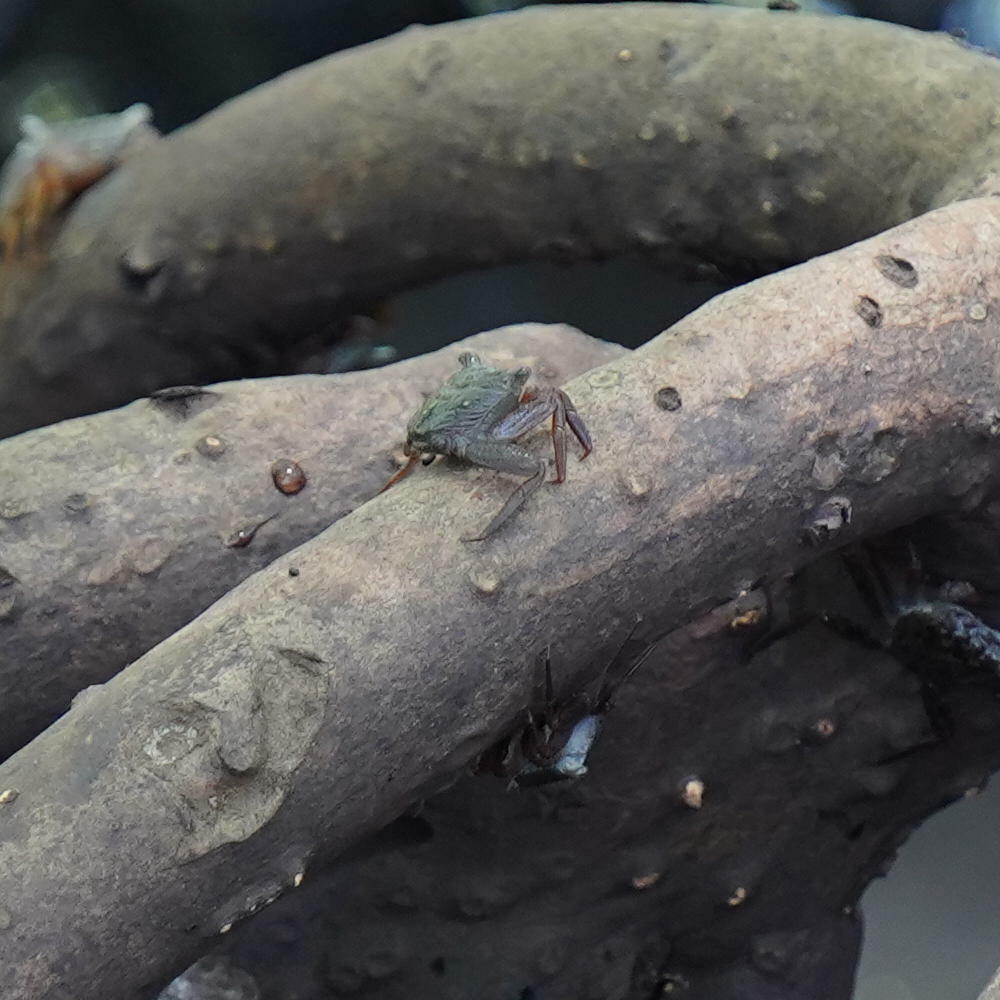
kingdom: Animalia
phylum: Arthropoda
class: Malacostraca
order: Decapoda
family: Sesarmidae
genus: Aratus
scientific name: Aratus pisonii
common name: Mangrove crab
